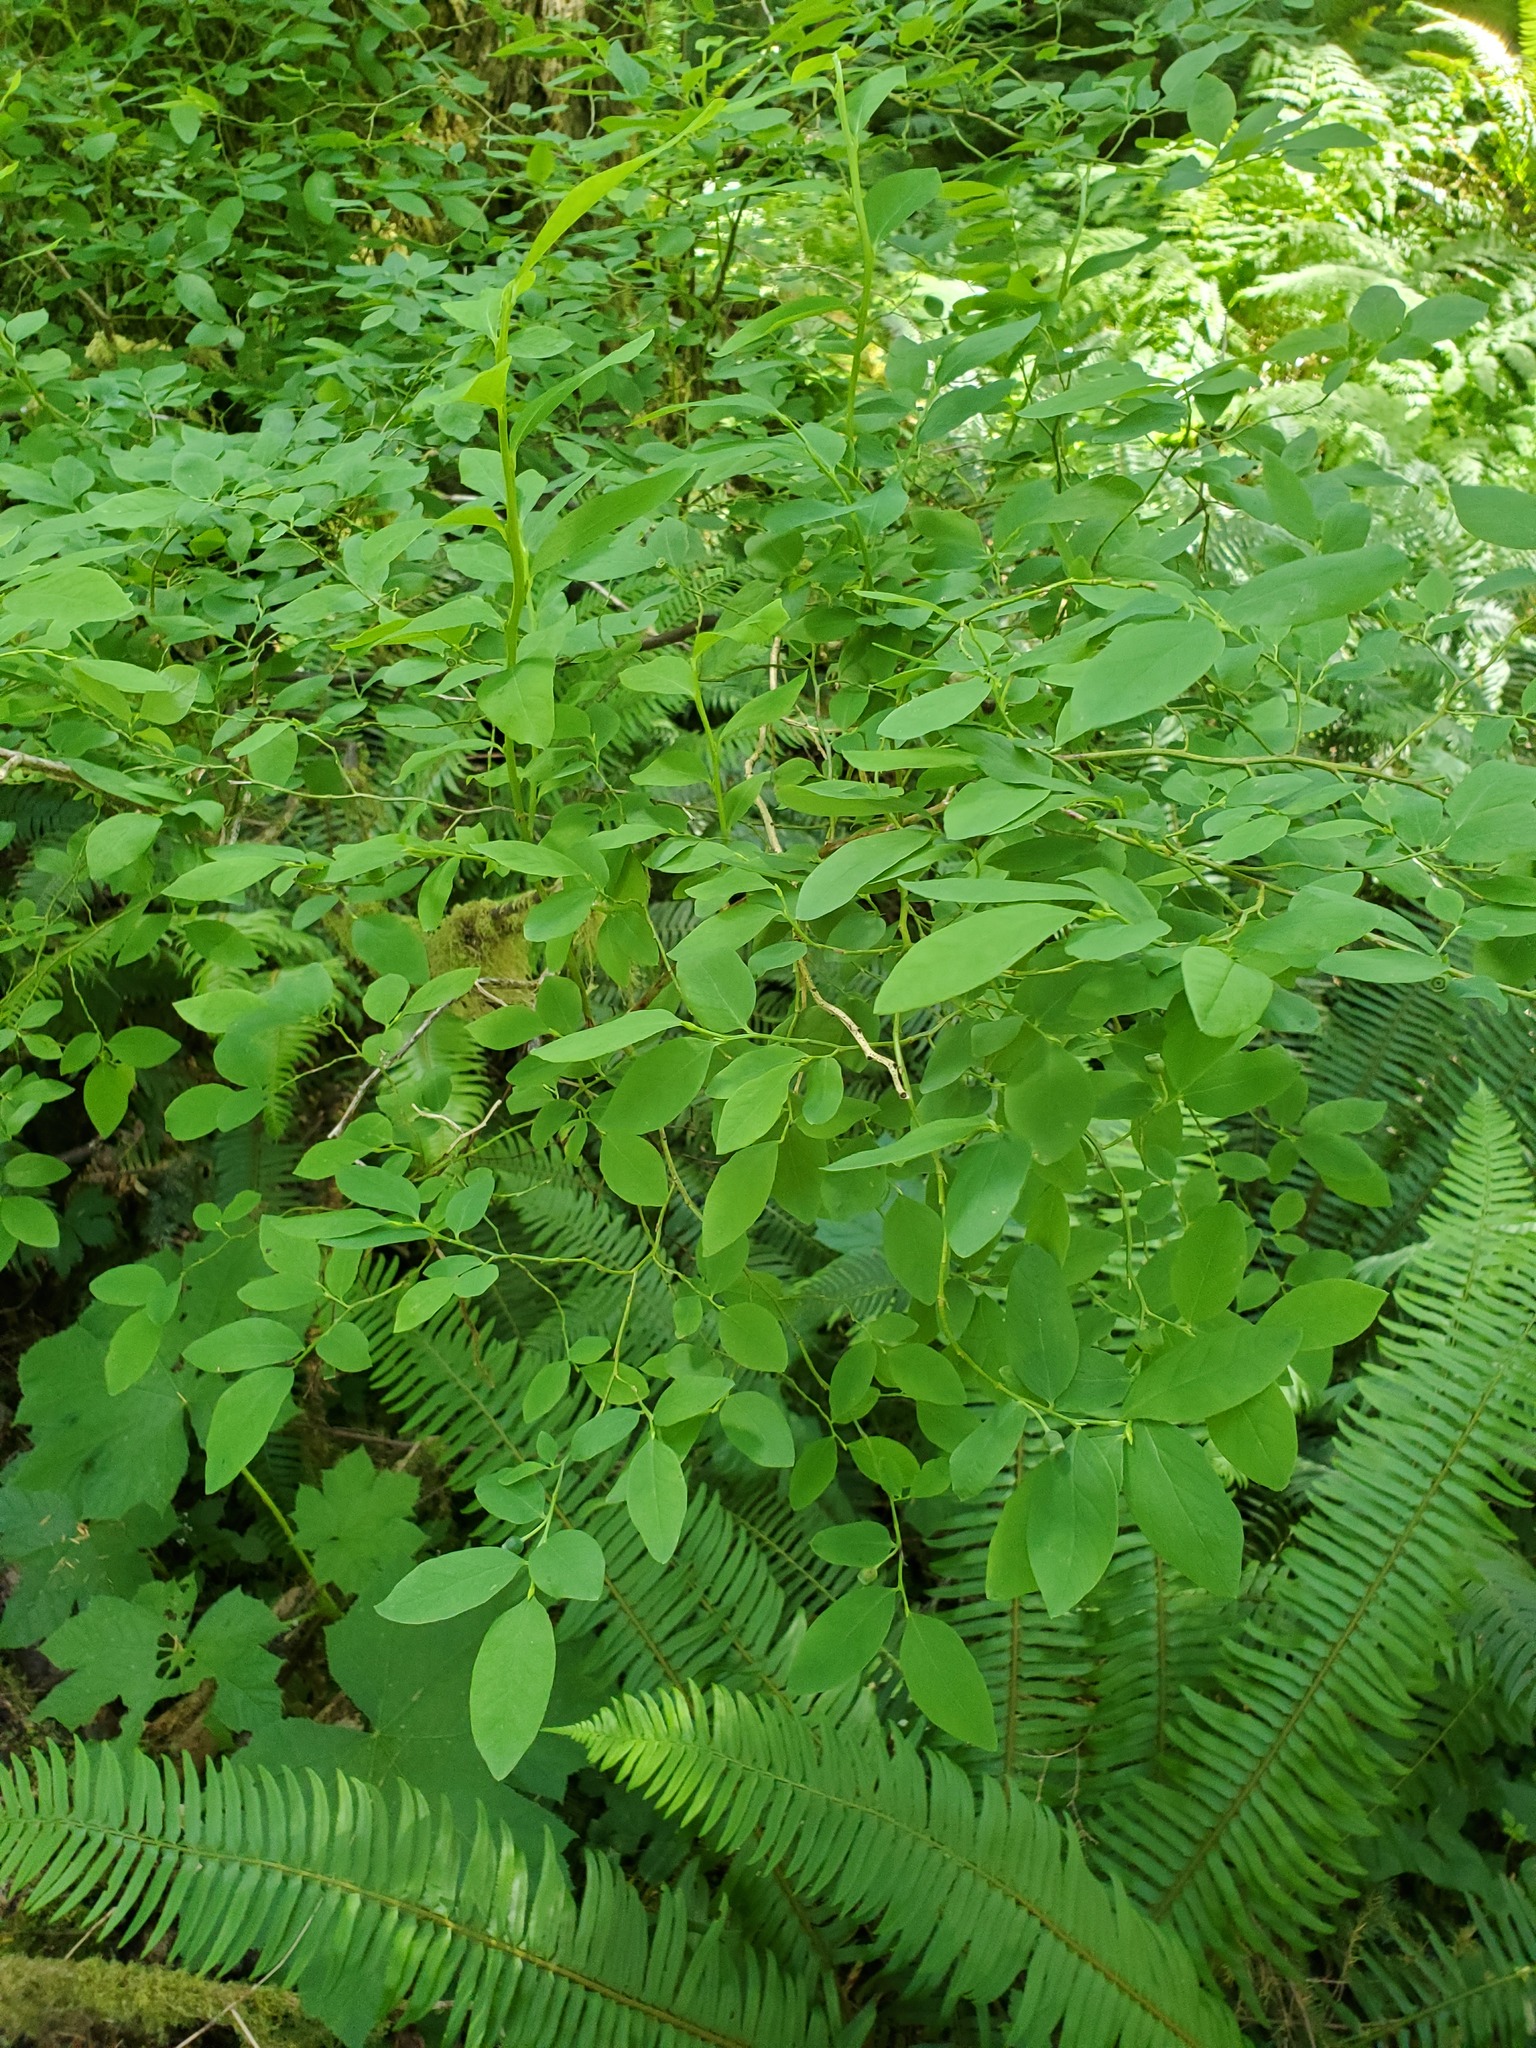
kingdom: Plantae
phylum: Tracheophyta
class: Magnoliopsida
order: Ericales
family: Ericaceae
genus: Vaccinium
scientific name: Vaccinium parvifolium
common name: Red-huckleberry
